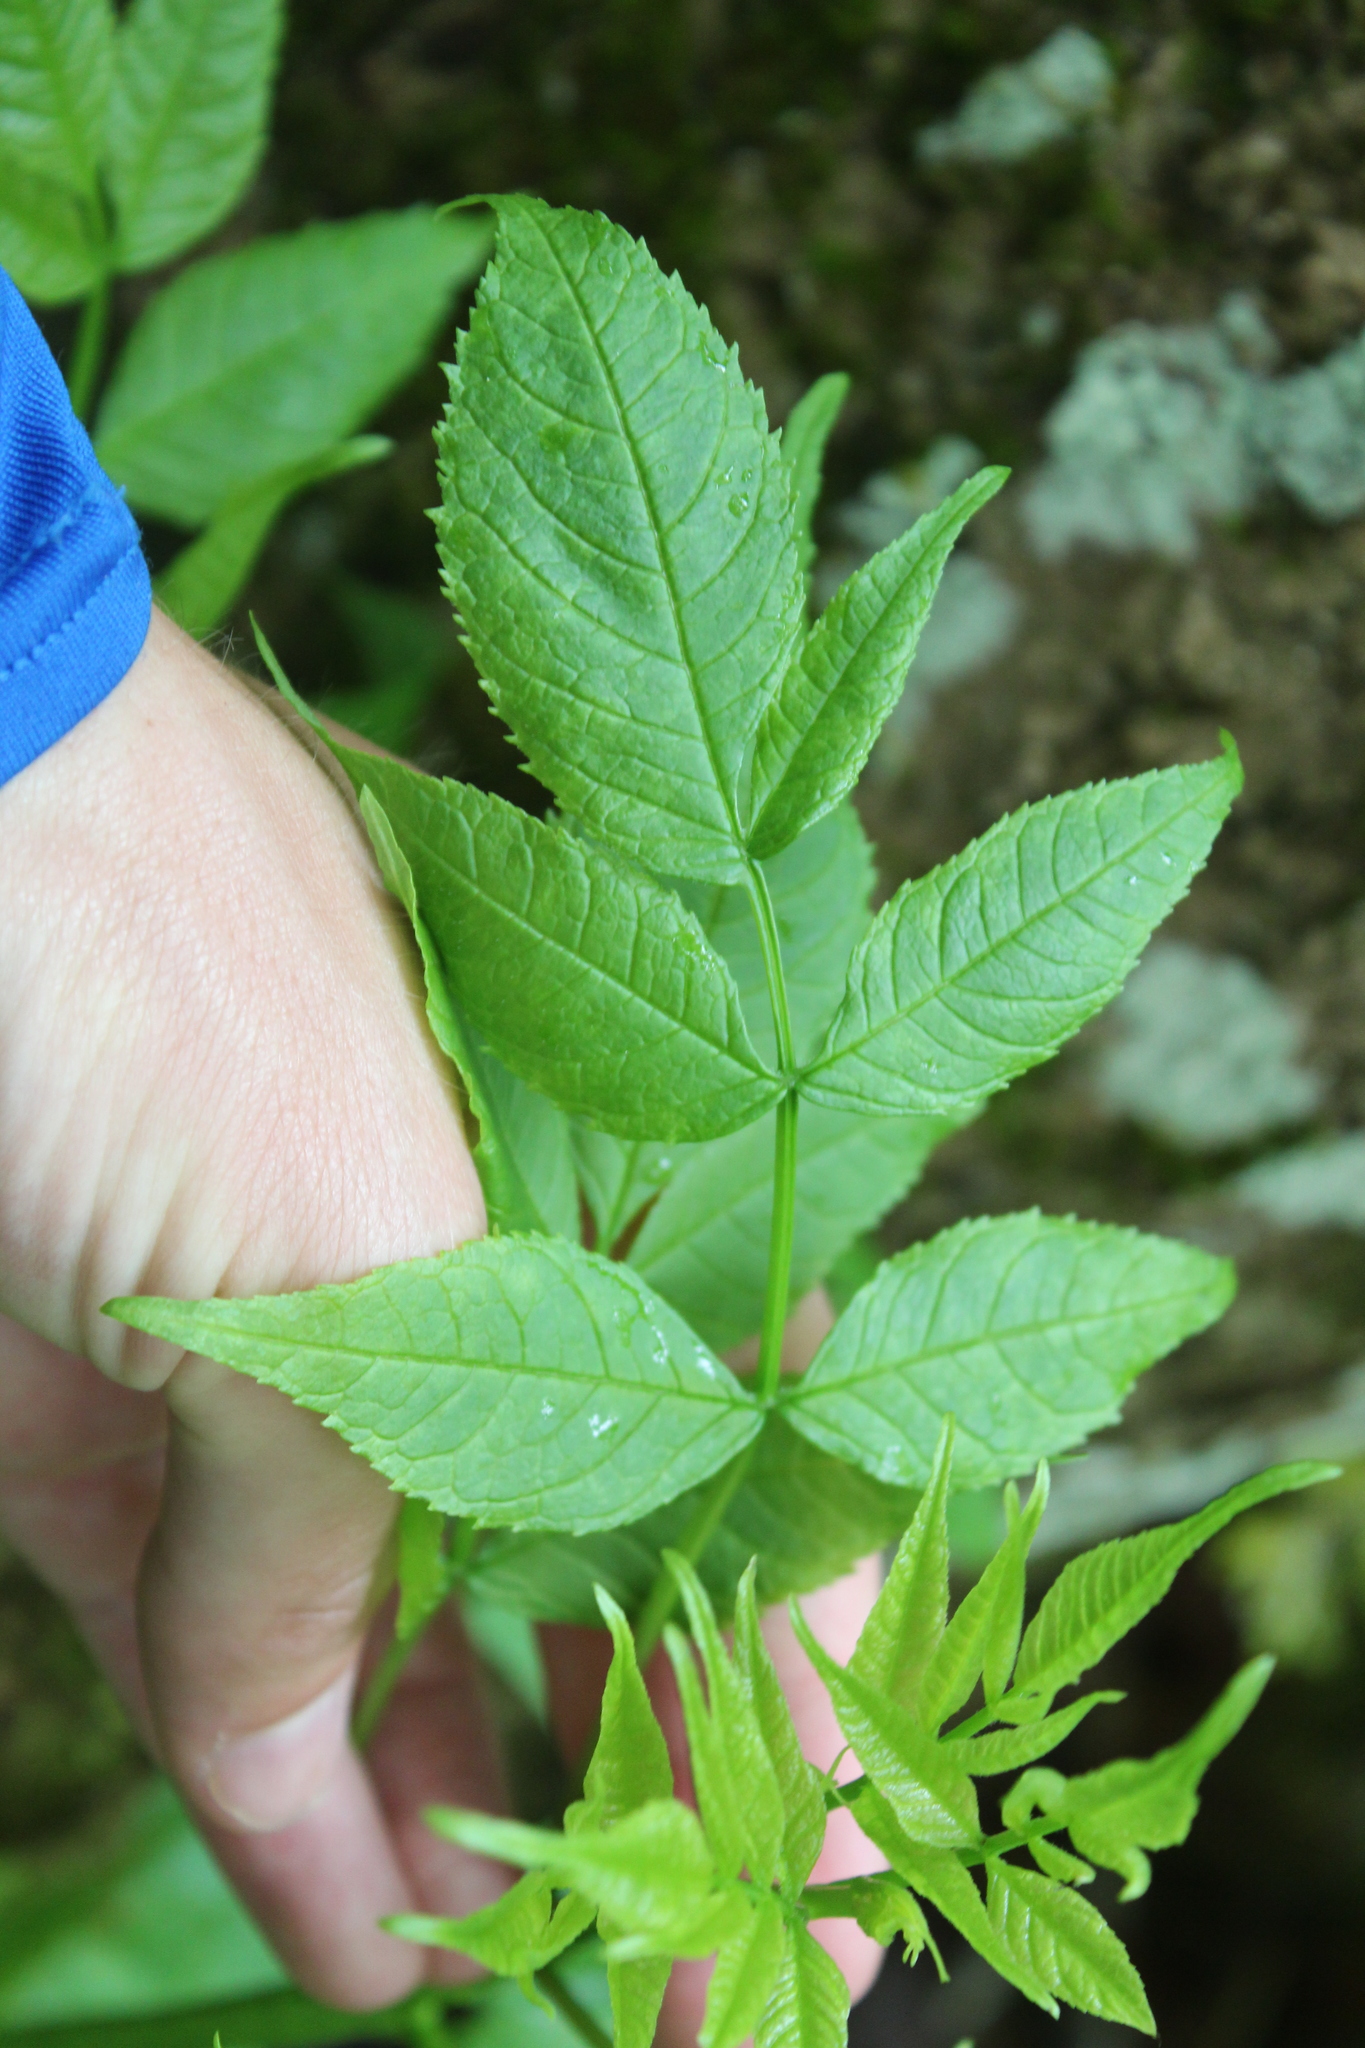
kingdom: Plantae
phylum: Tracheophyta
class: Magnoliopsida
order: Lamiales
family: Oleaceae
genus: Fraxinus
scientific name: Fraxinus nigra
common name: Black ash
